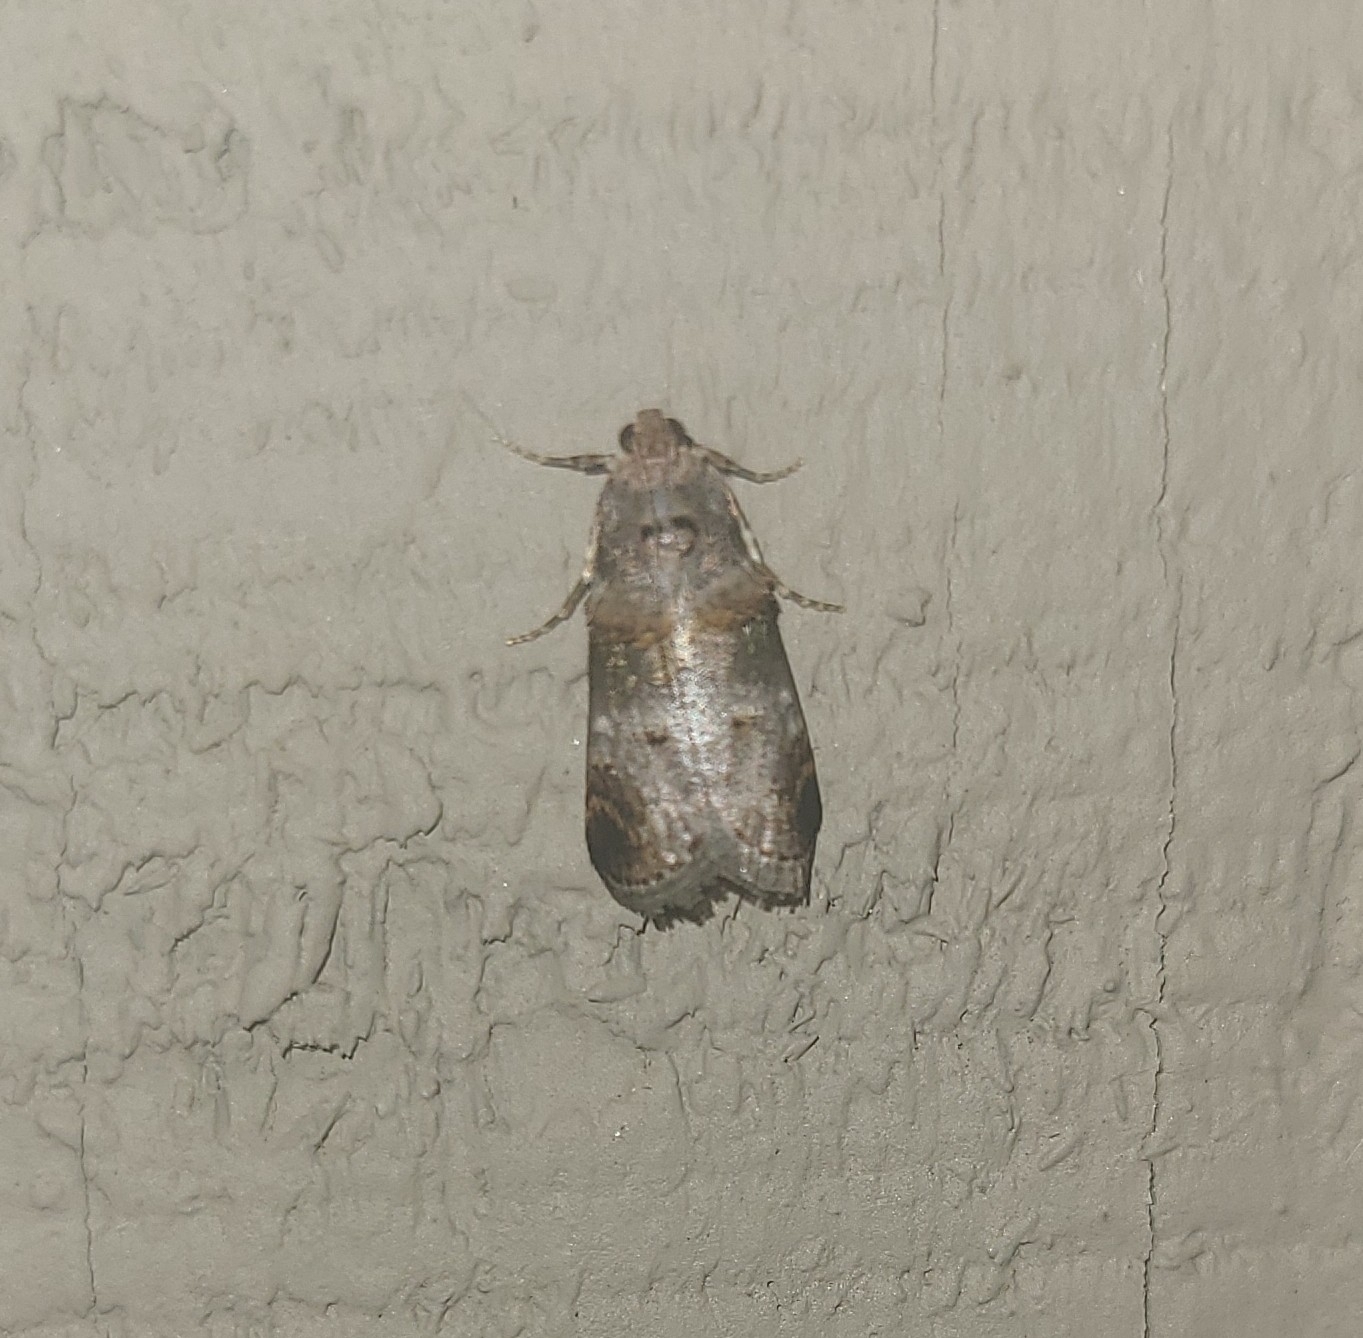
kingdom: Animalia
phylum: Arthropoda
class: Insecta
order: Lepidoptera
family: Pyralidae
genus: Oneida
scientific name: Oneida lunulalis
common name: Orange-tufted oneida moth
